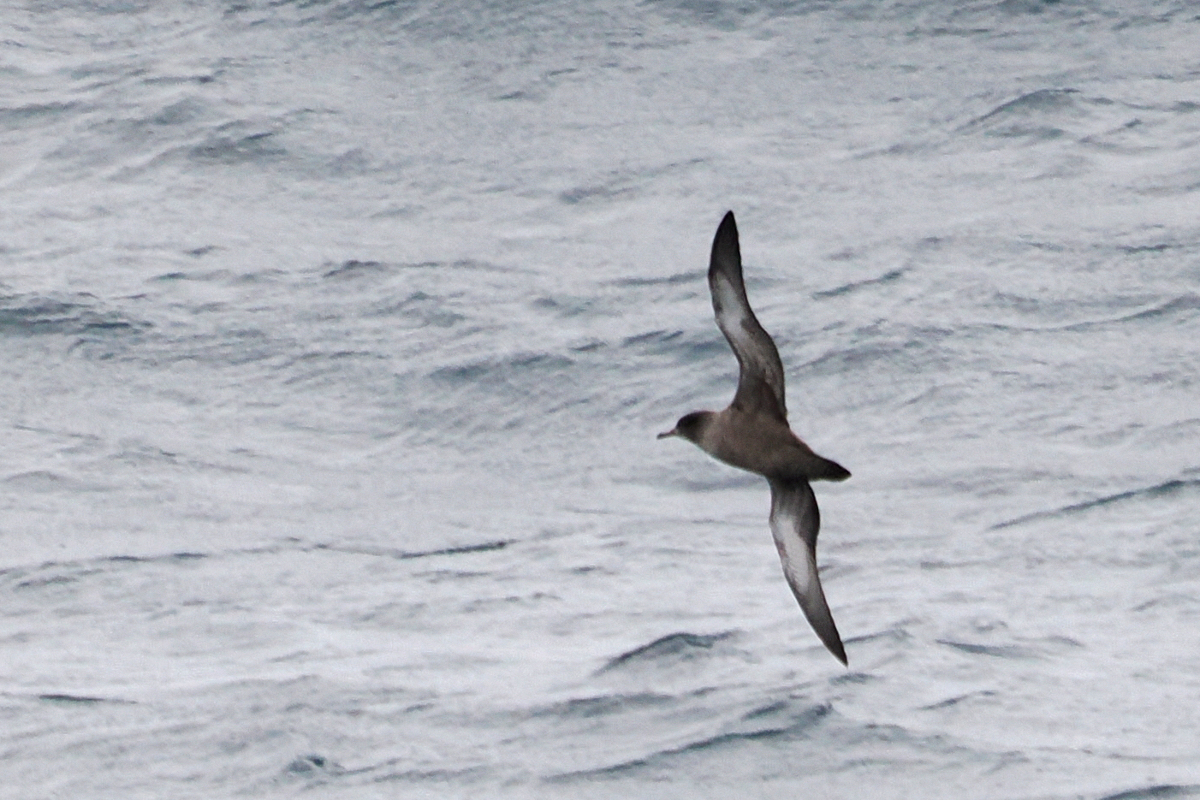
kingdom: Animalia
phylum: Chordata
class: Aves
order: Procellariiformes
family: Procellariidae
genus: Puffinus
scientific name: Puffinus griseus
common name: Sooty shearwater
